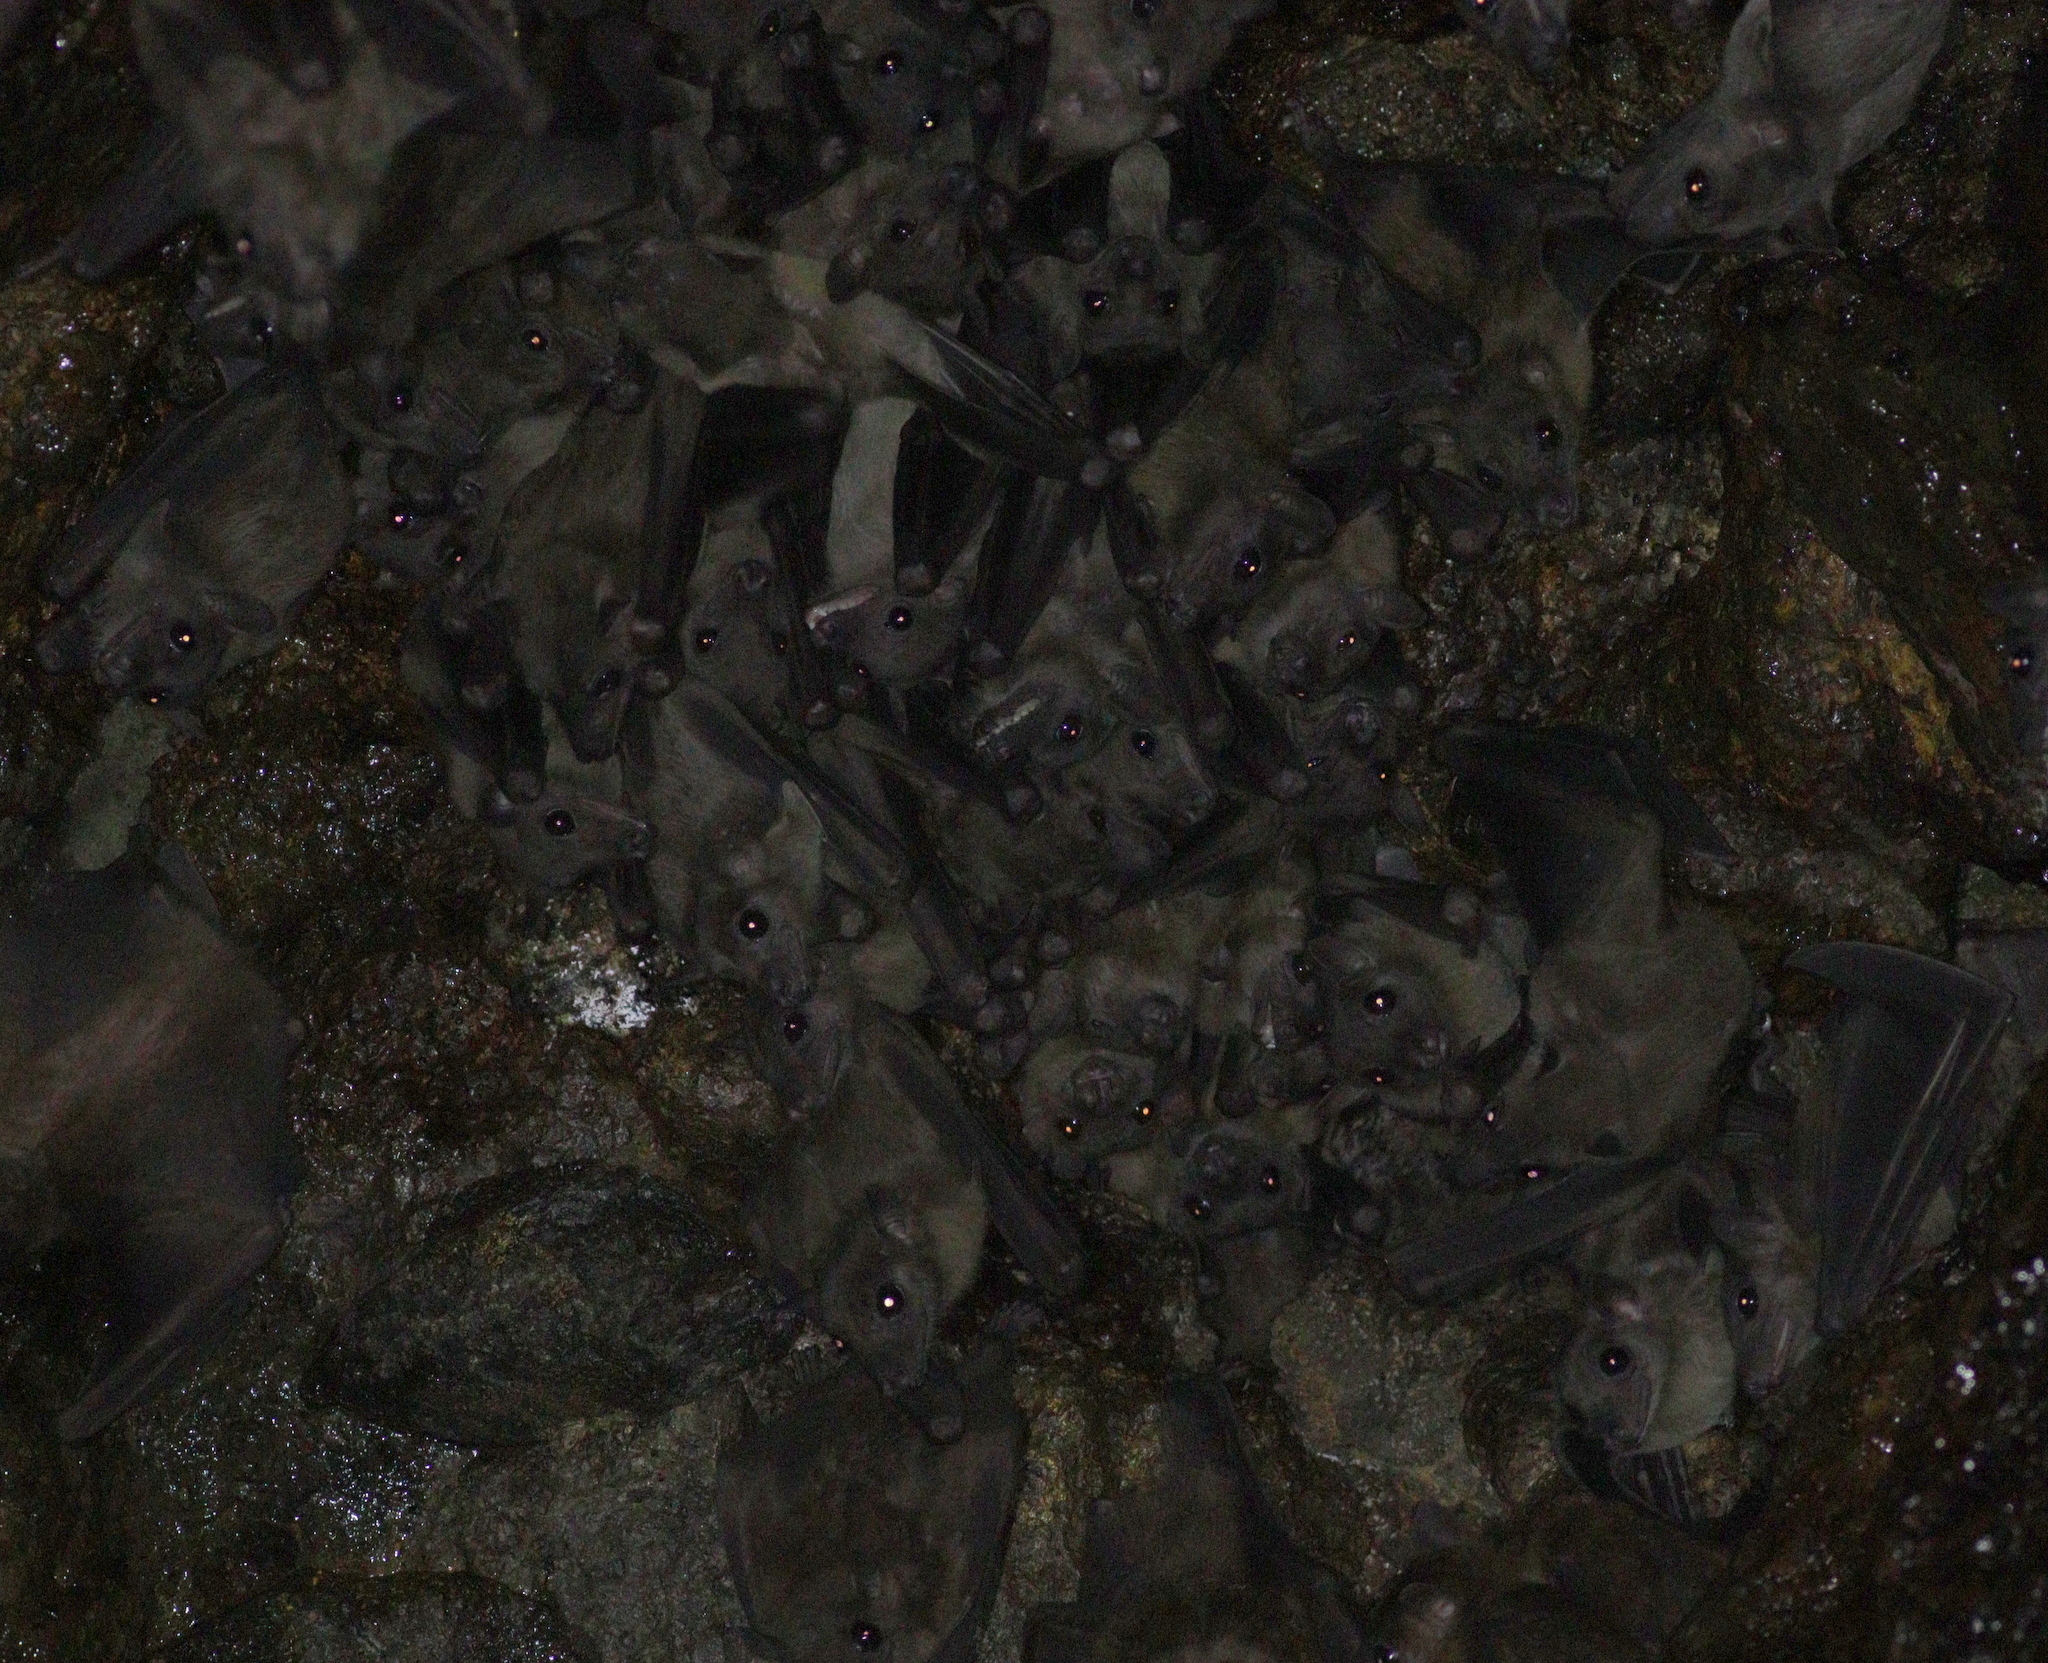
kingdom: Animalia
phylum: Chordata
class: Mammalia
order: Chiroptera
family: Pteropodidae
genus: Rousettus
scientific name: Rousettus aegyptiacus
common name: Egyptian rousette
